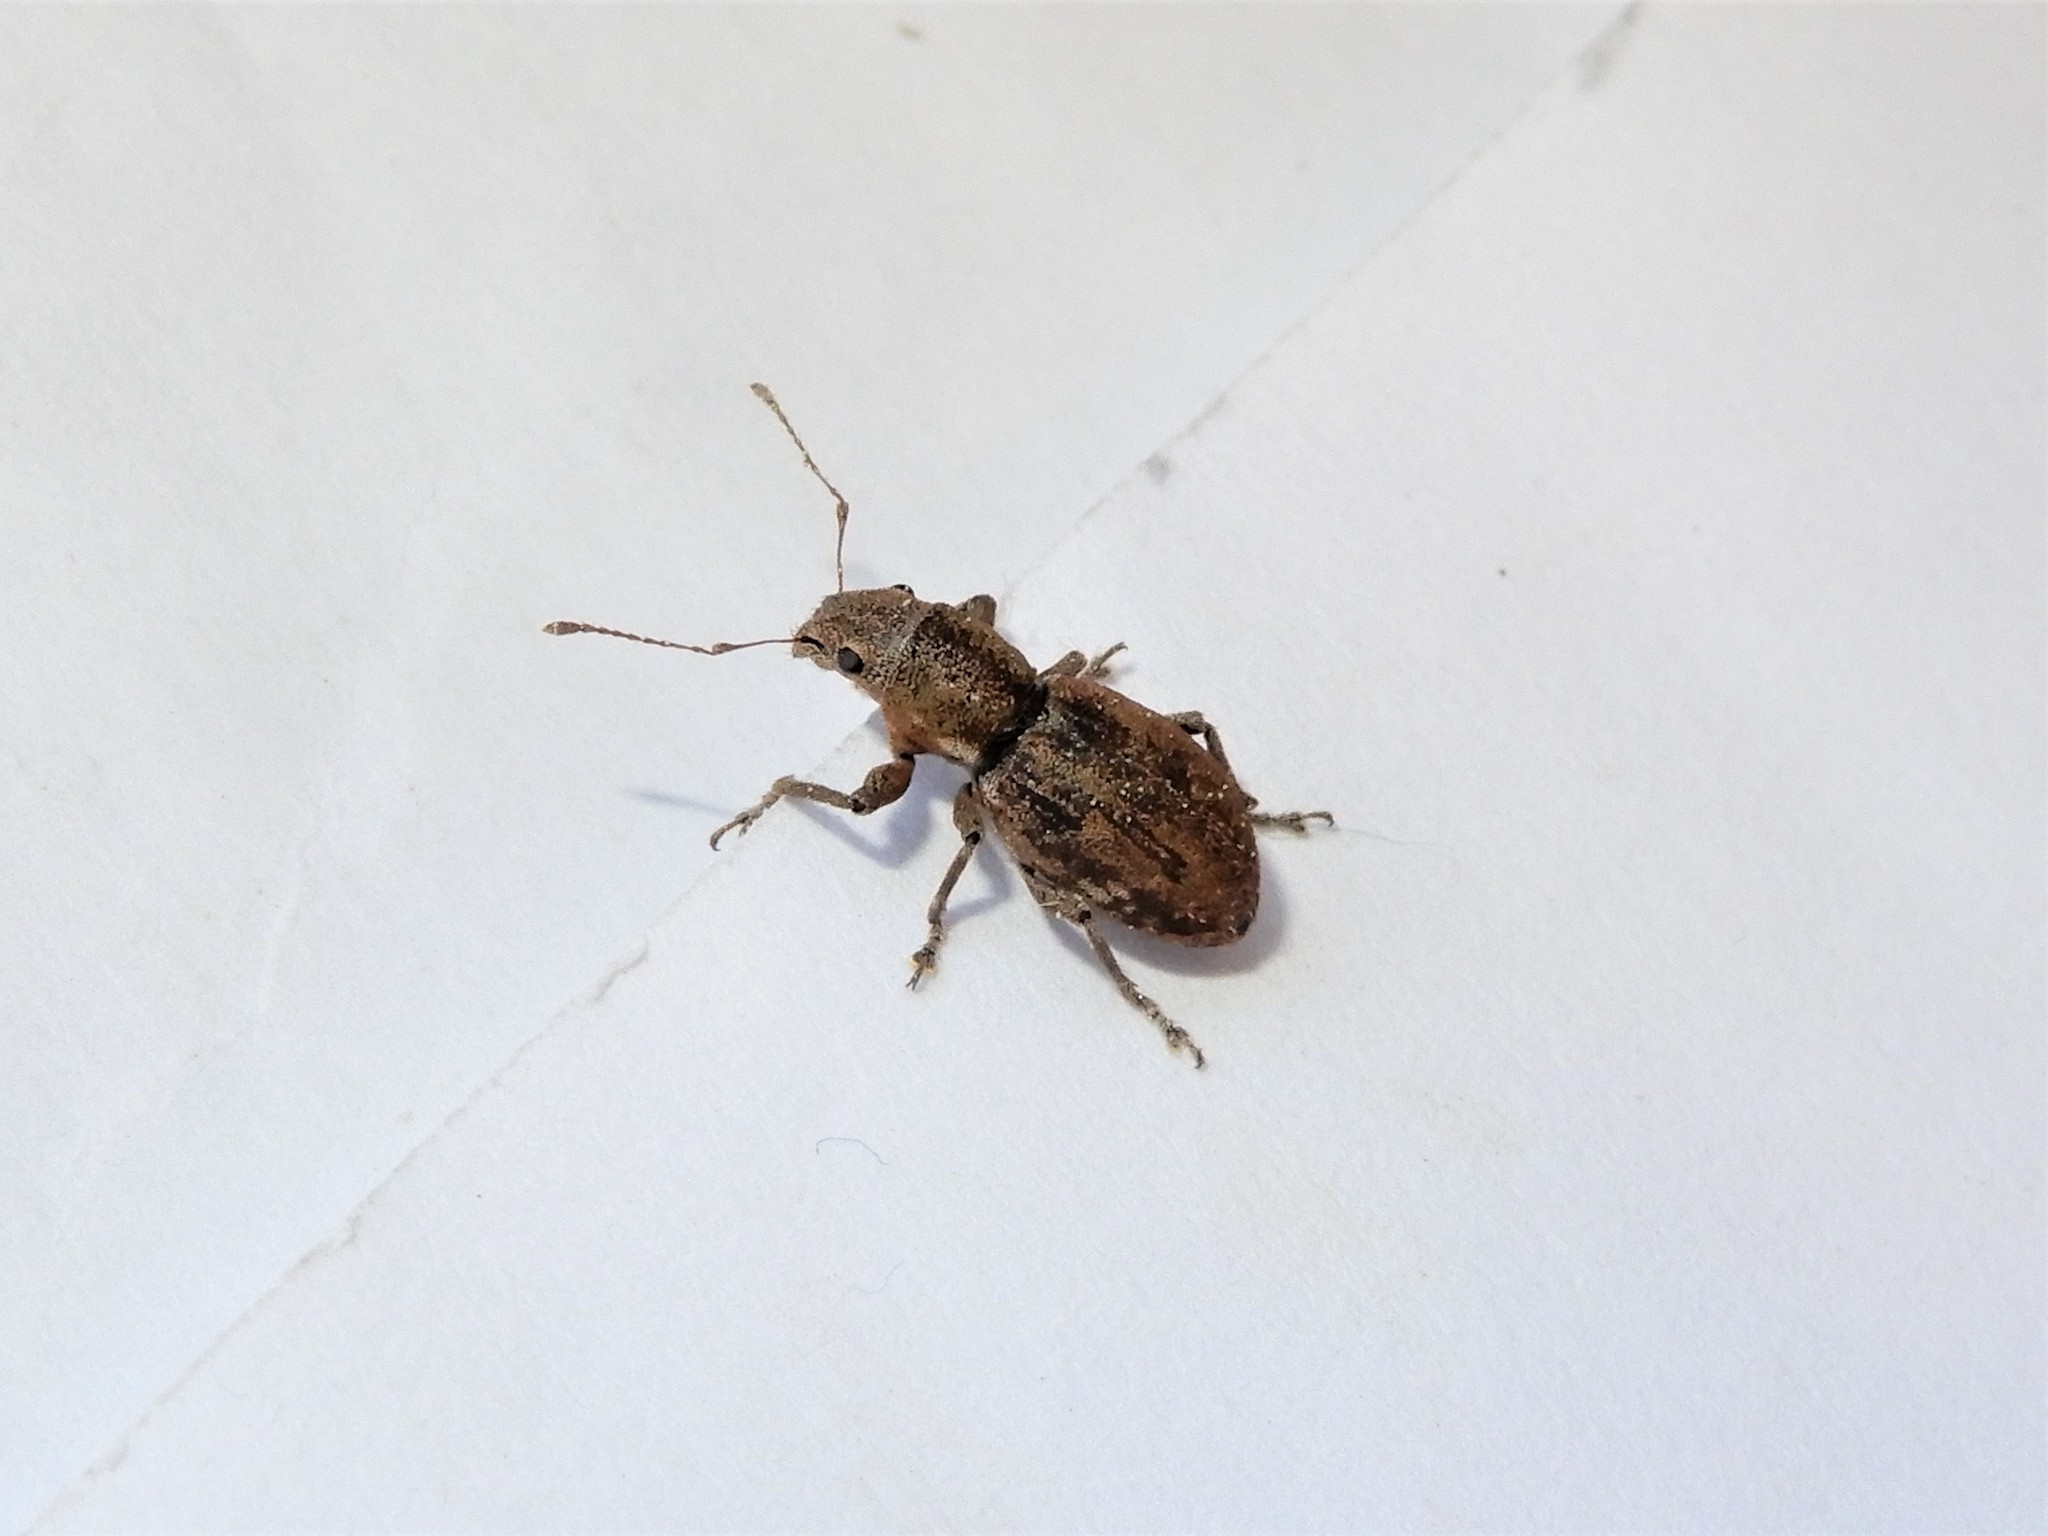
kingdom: Animalia
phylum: Arthropoda
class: Insecta
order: Coleoptera
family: Curculionidae
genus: Naupactus
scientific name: Naupactus cervinus
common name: Fuller rose beetle
